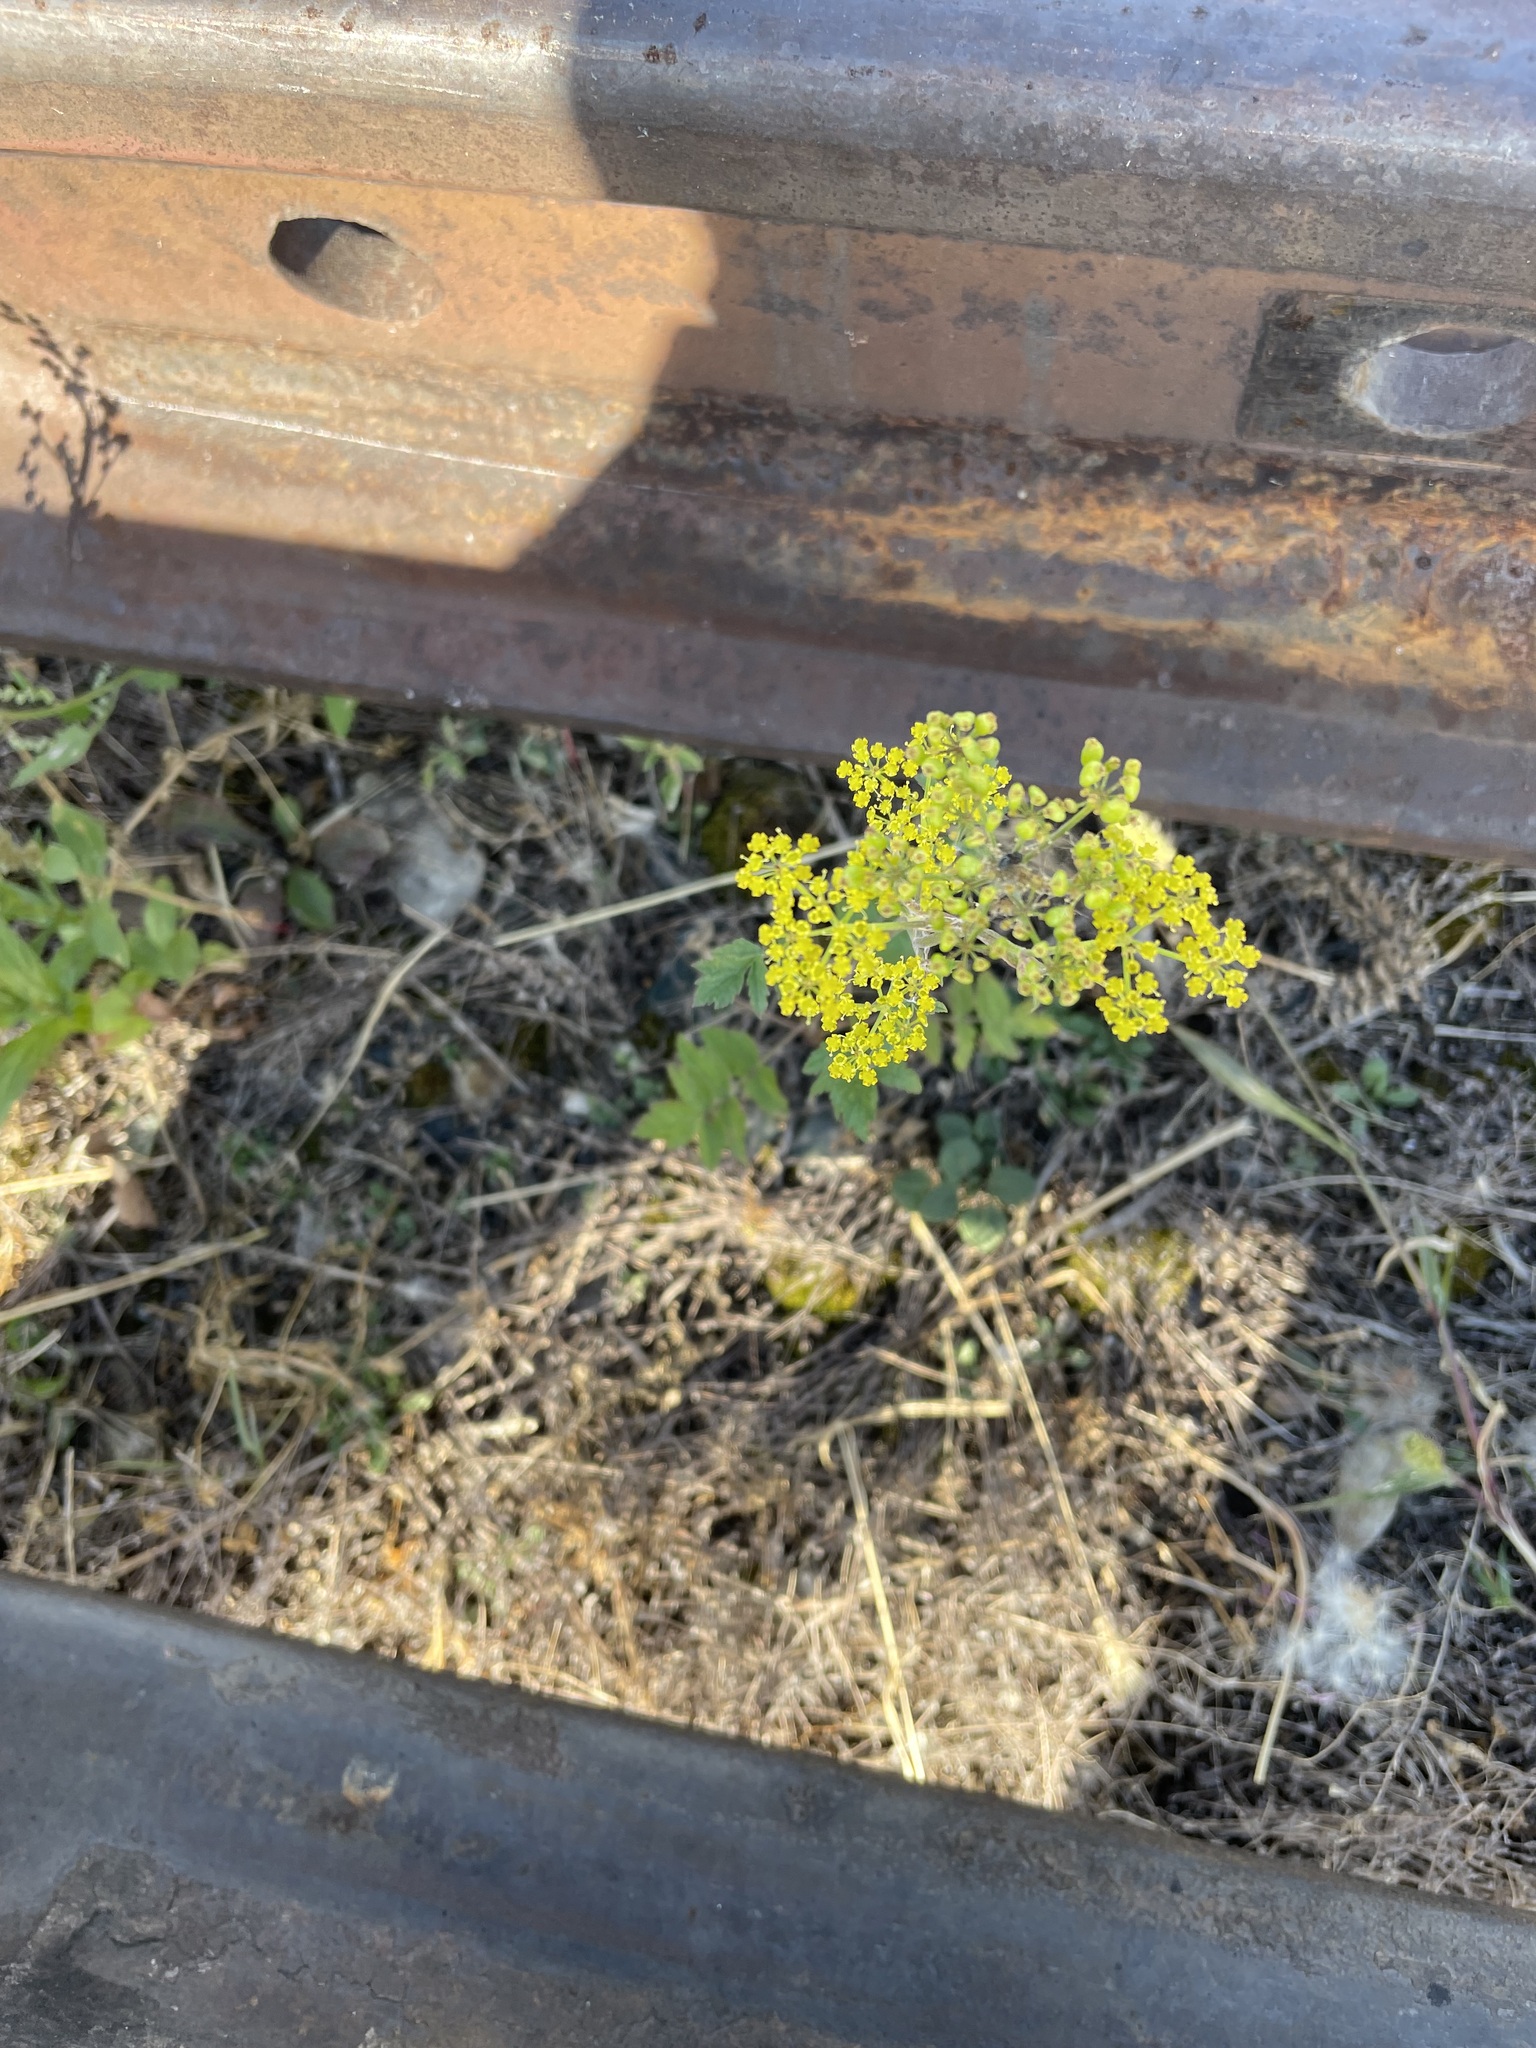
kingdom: Plantae
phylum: Tracheophyta
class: Magnoliopsida
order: Apiales
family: Apiaceae
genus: Pastinaca
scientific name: Pastinaca sativa
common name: Wild parsnip
